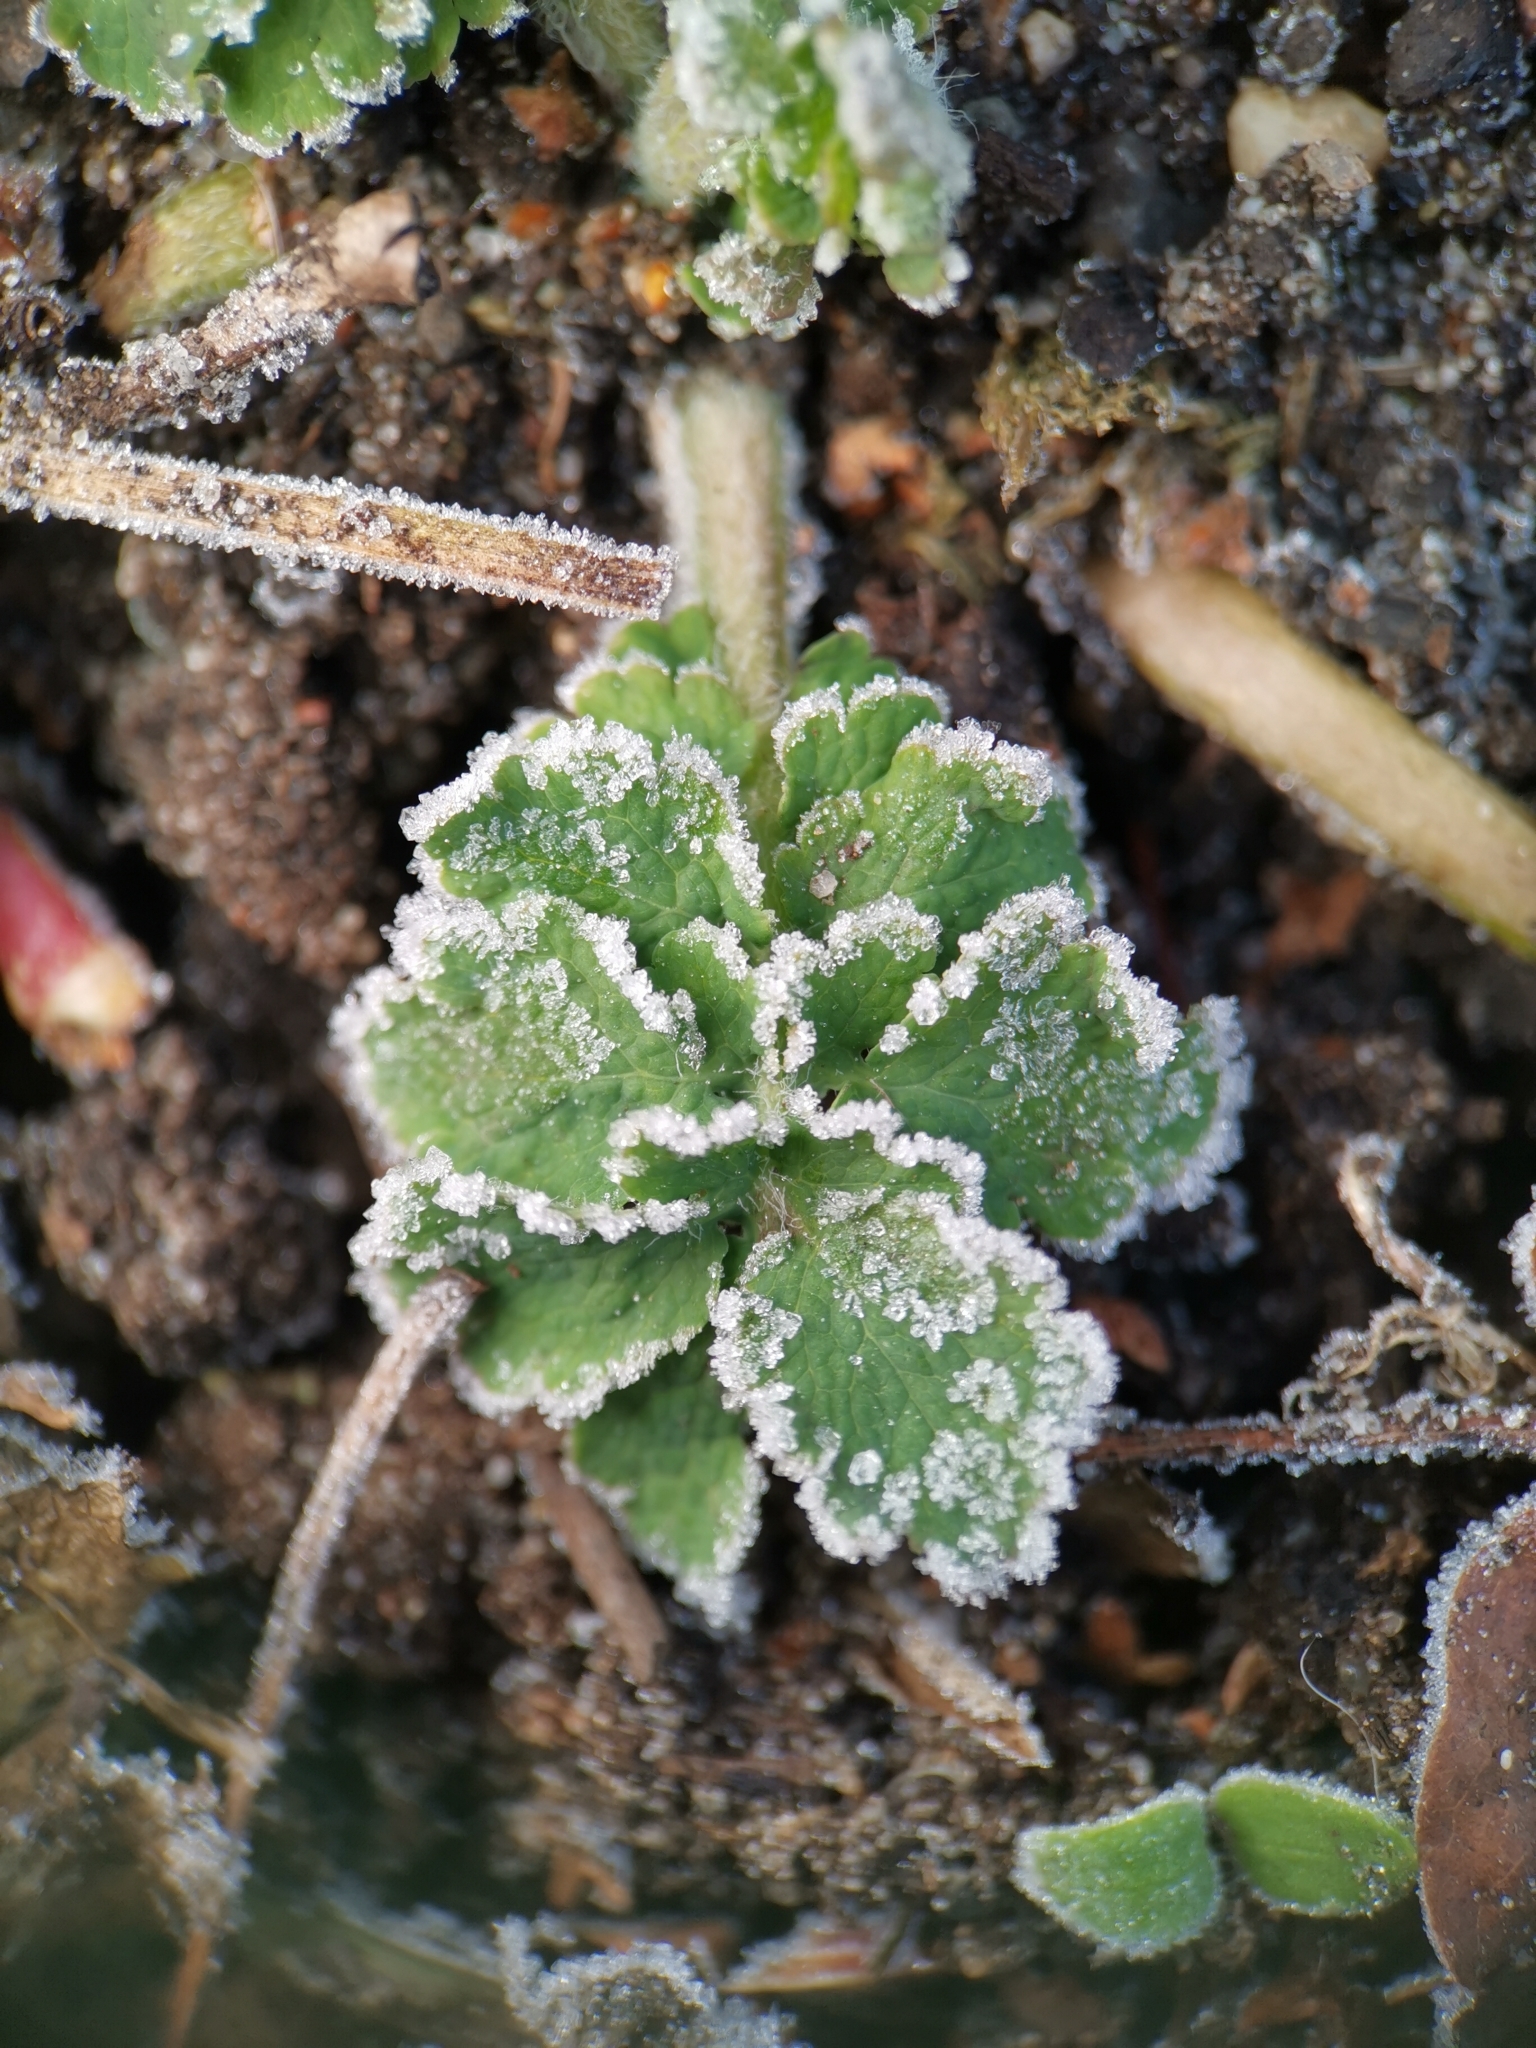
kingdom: Plantae
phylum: Tracheophyta
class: Magnoliopsida
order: Ranunculales
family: Papaveraceae
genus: Chelidonium
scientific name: Chelidonium majus
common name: Greater celandine
